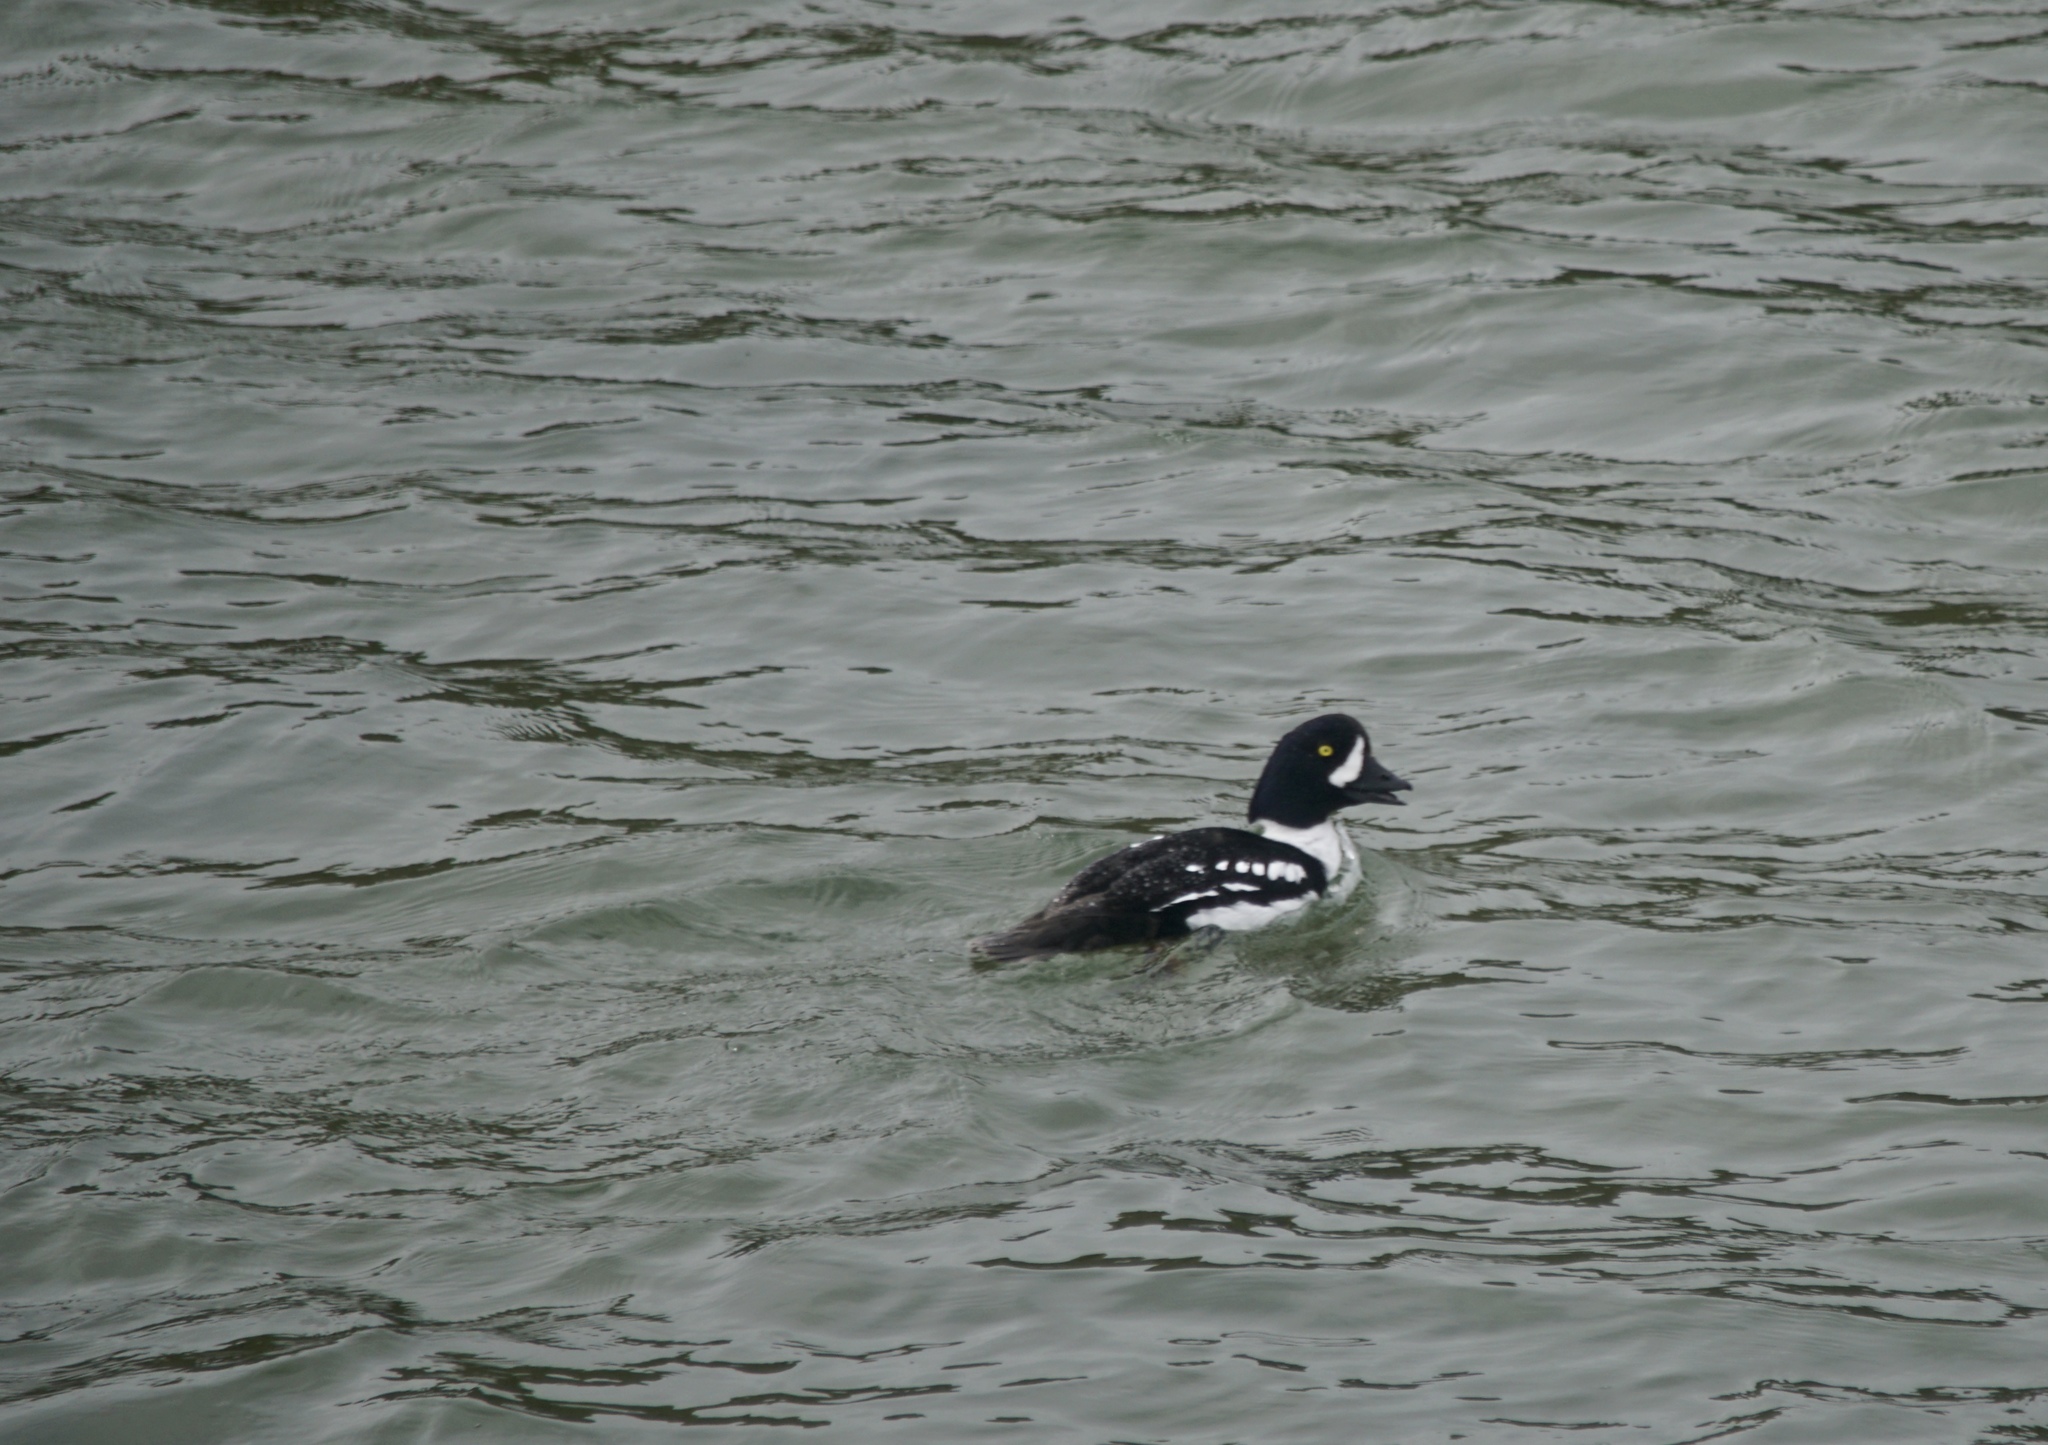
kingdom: Animalia
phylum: Chordata
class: Aves
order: Anseriformes
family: Anatidae
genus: Bucephala
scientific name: Bucephala islandica
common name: Barrow's goldeneye
